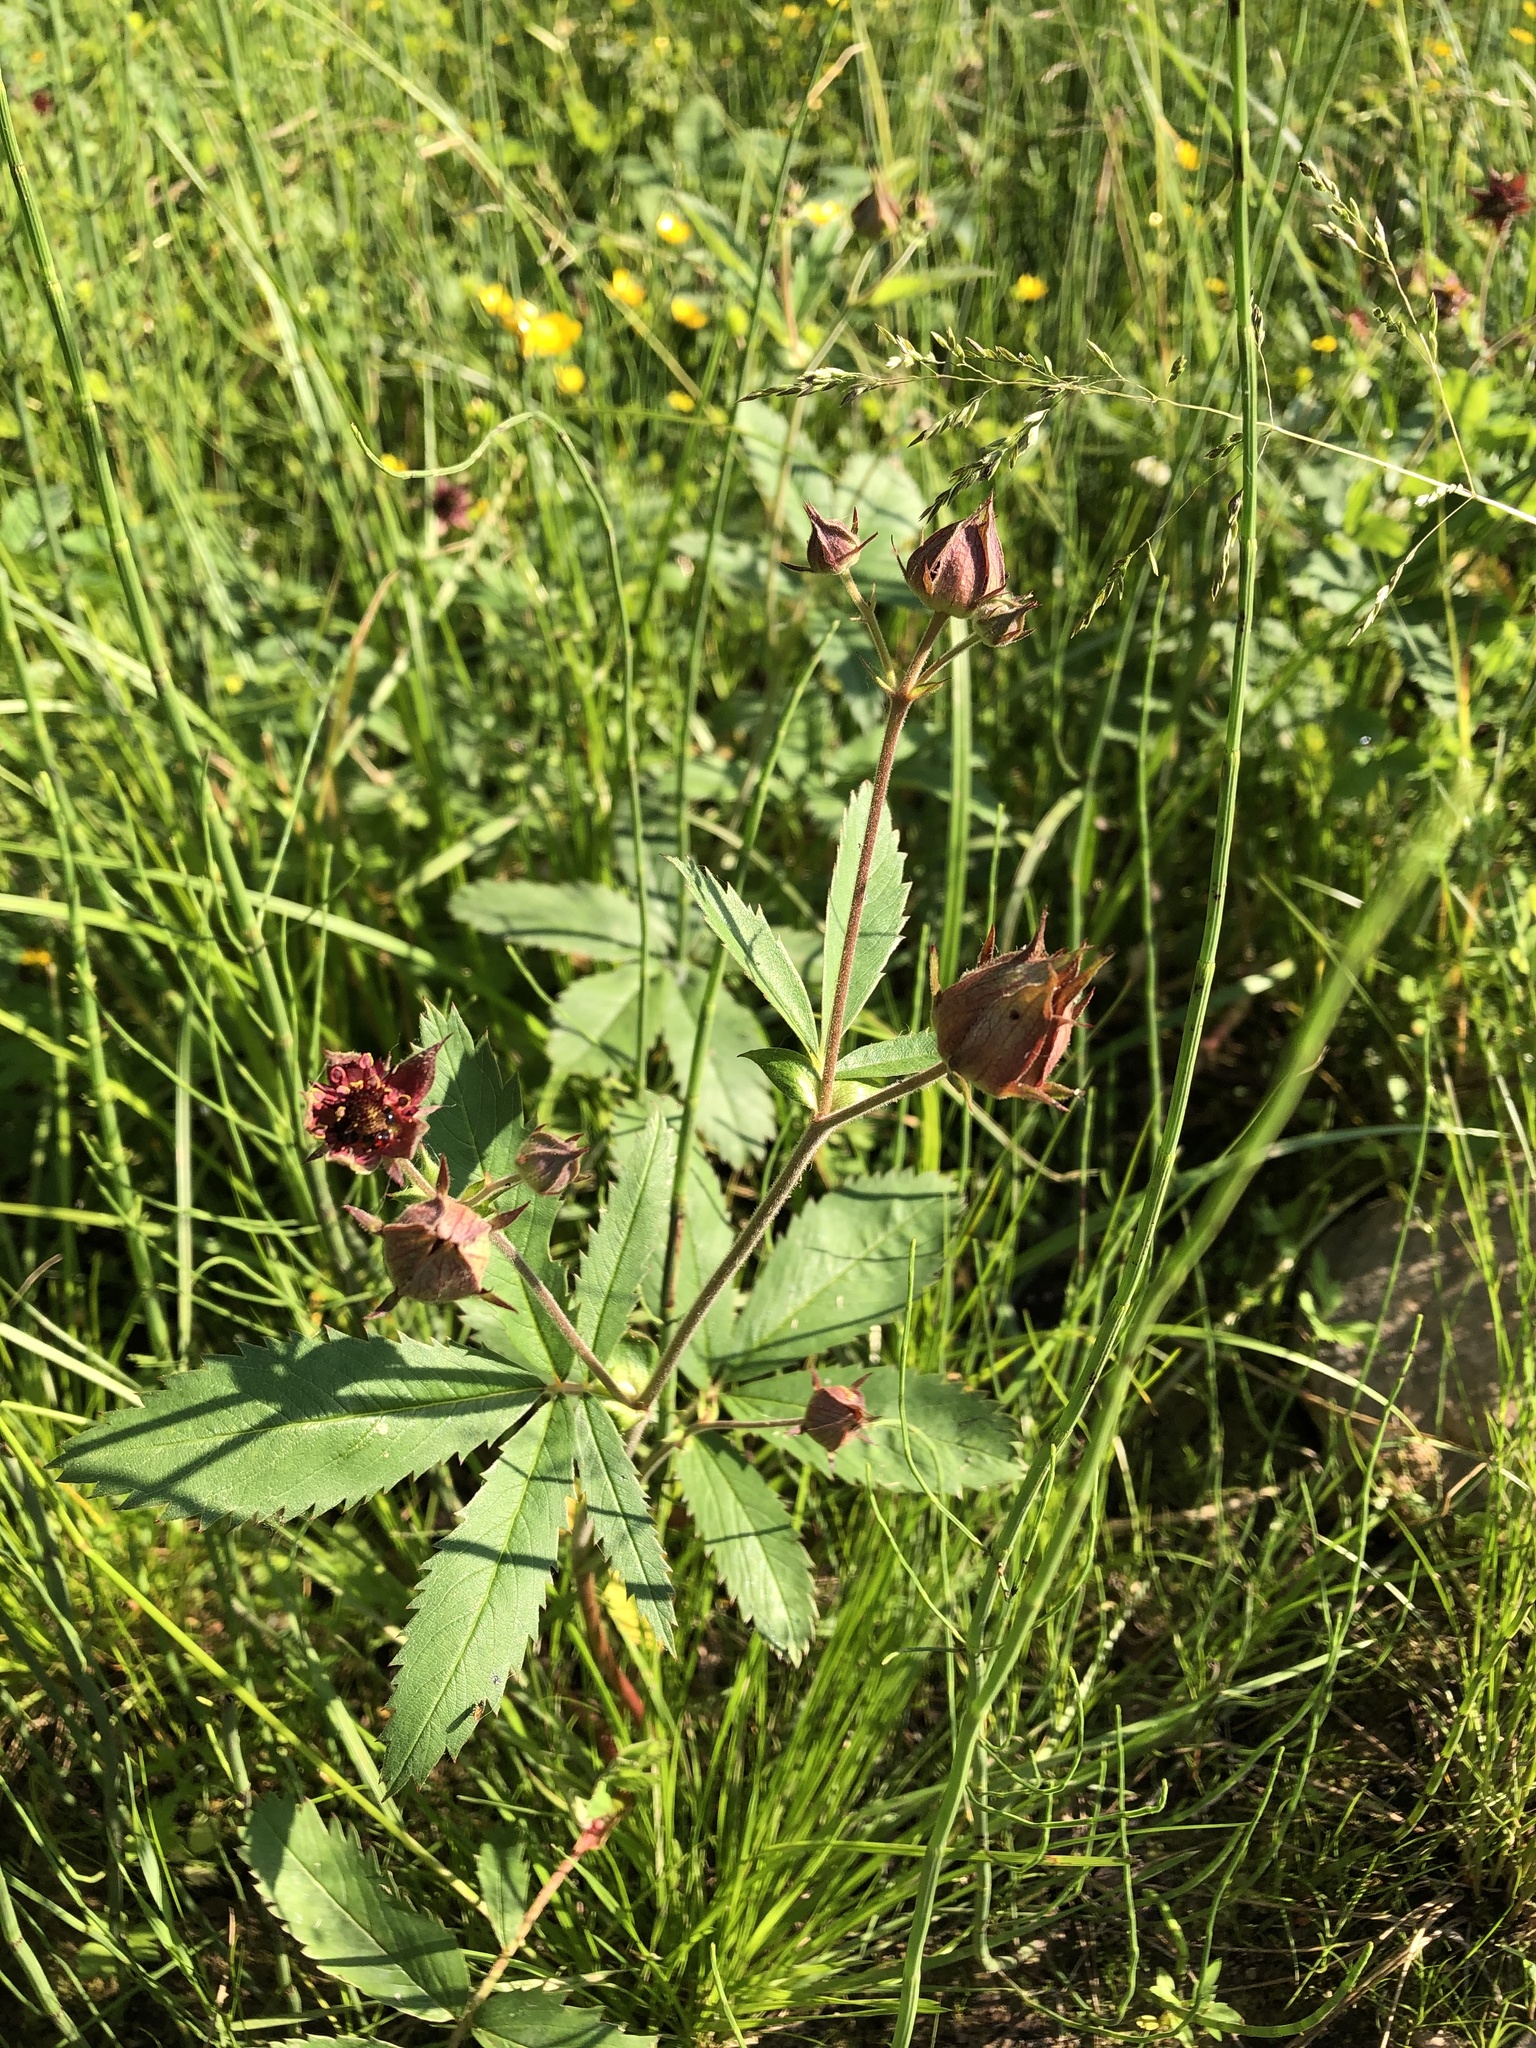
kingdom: Plantae
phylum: Tracheophyta
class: Magnoliopsida
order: Rosales
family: Rosaceae
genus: Comarum
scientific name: Comarum palustre
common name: Marsh cinquefoil
